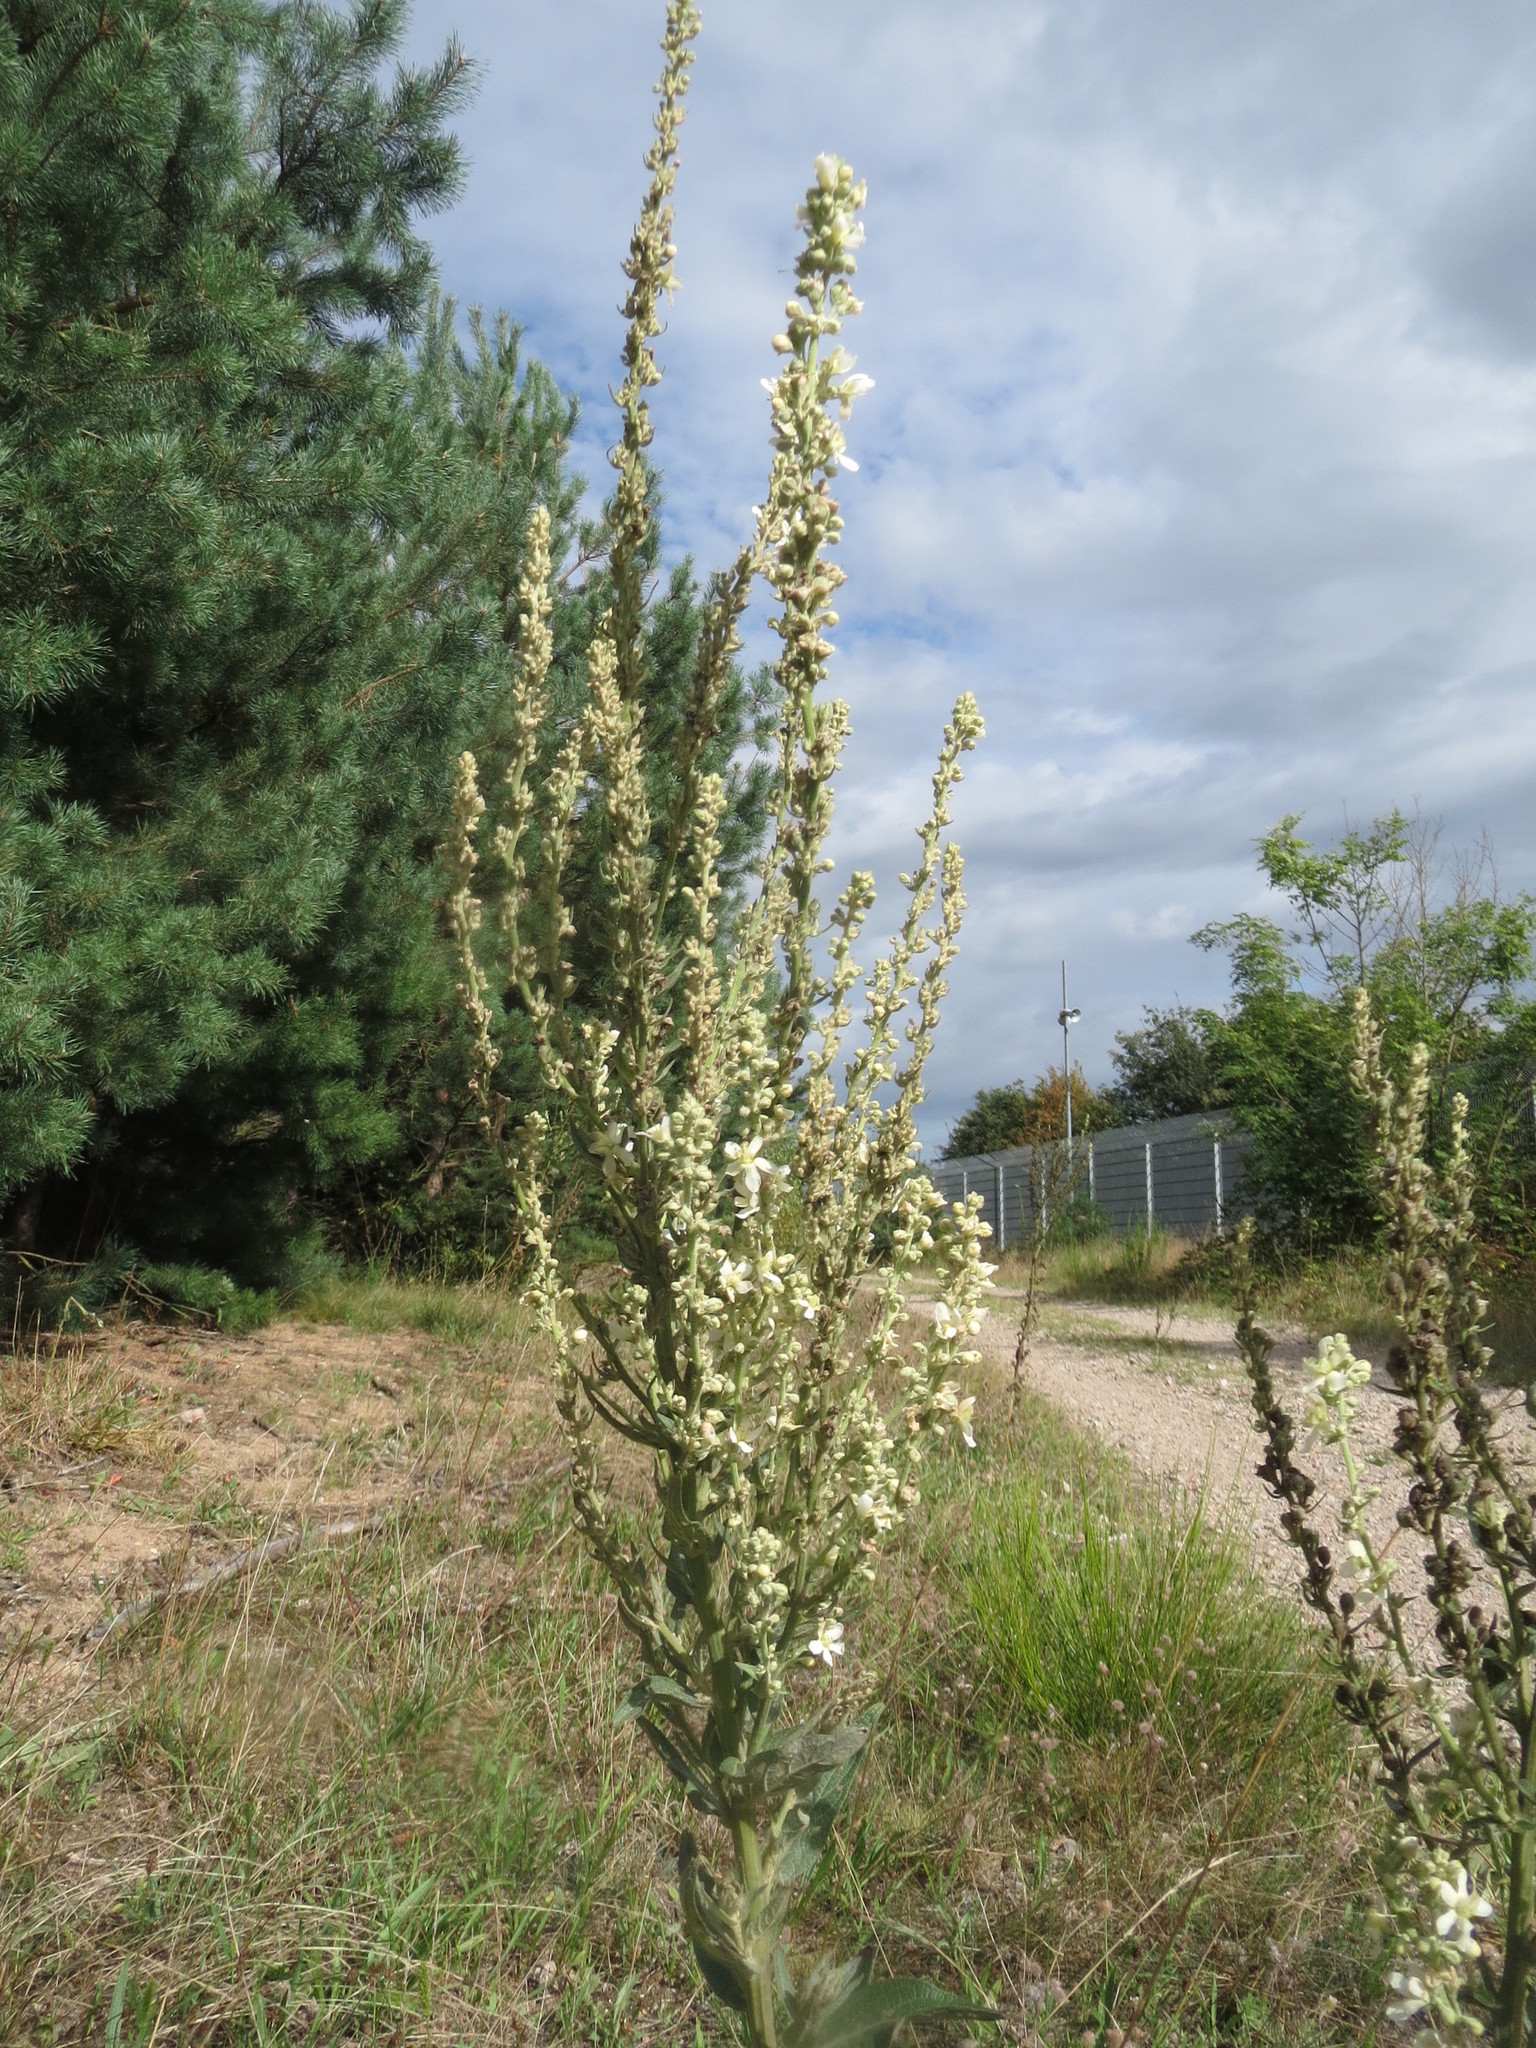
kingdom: Plantae
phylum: Tracheophyta
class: Magnoliopsida
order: Lamiales
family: Scrophulariaceae
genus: Verbascum
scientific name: Verbascum lychnitis
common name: White mullein
